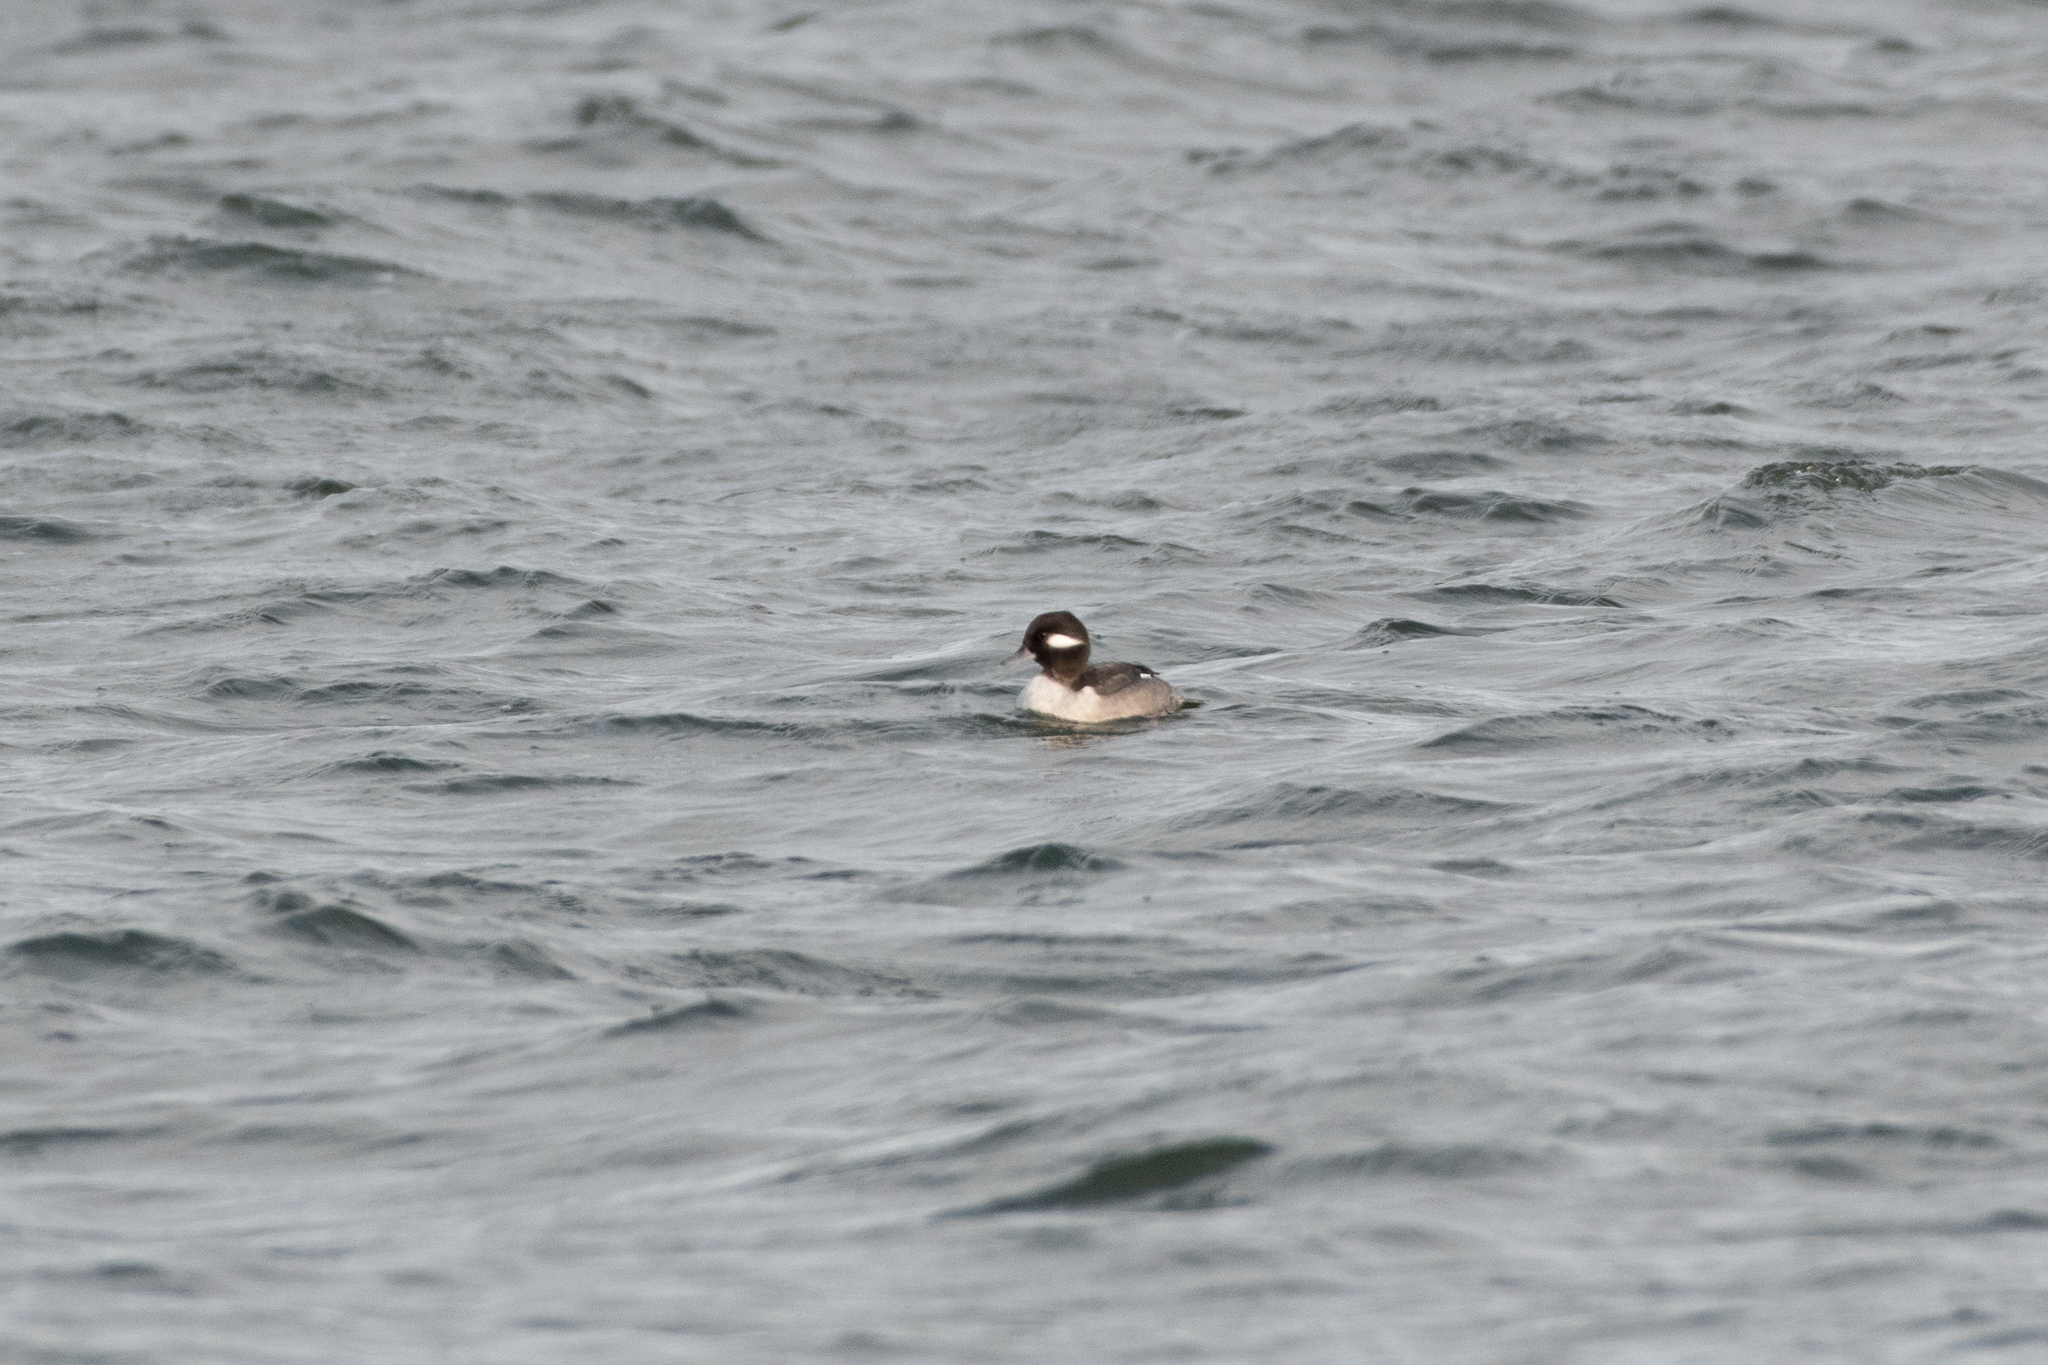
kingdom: Animalia
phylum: Chordata
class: Aves
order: Anseriformes
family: Anatidae
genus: Bucephala
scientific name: Bucephala albeola
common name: Bufflehead
